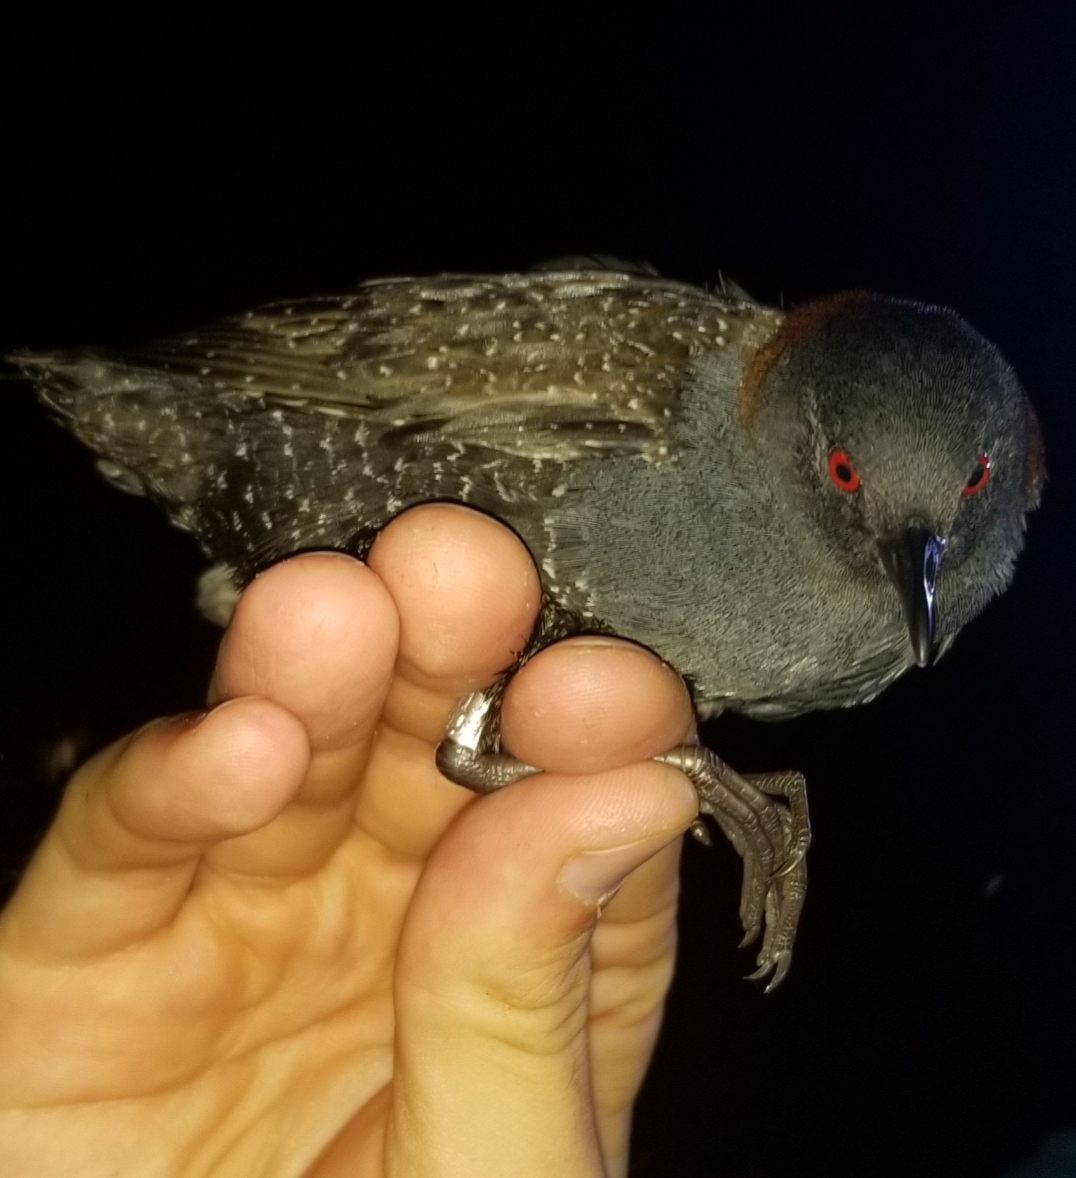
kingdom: Animalia
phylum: Chordata
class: Aves
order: Gruiformes
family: Rallidae
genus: Laterallus
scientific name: Laterallus jamaicensis
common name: Black rail
